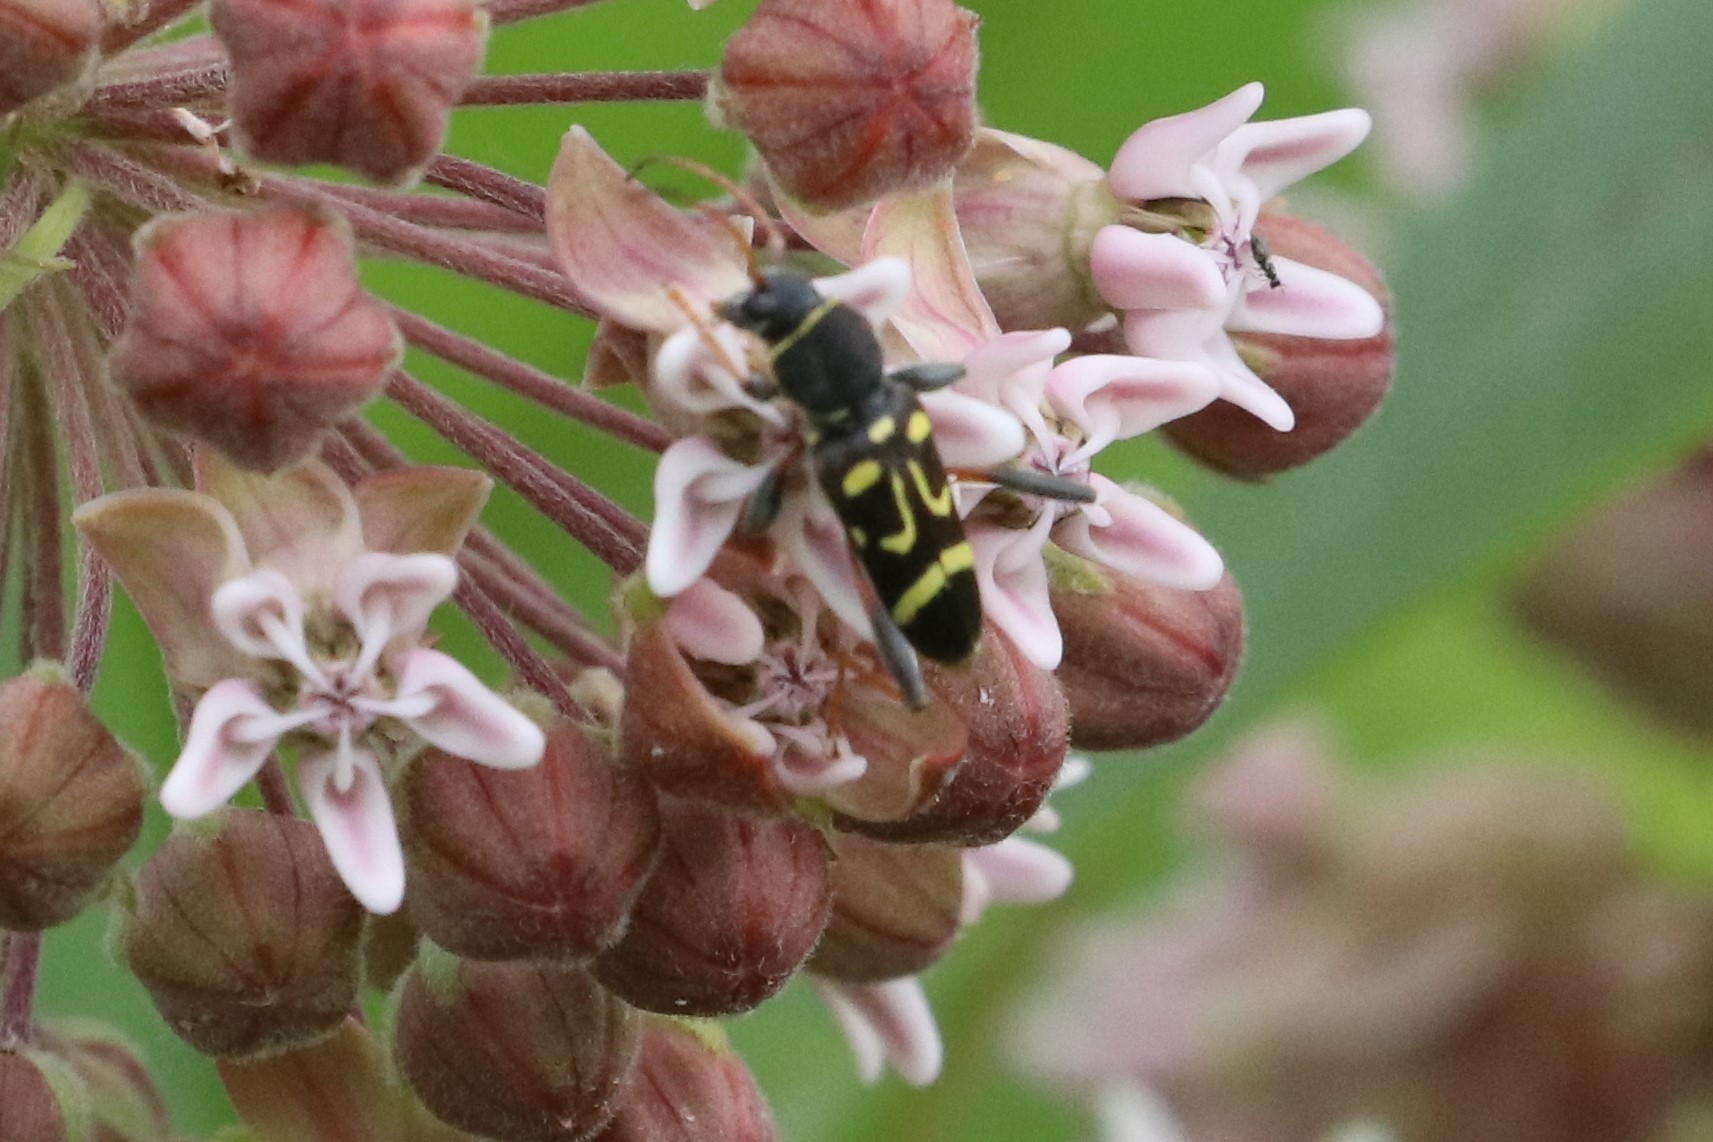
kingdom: Animalia
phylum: Arthropoda
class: Insecta
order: Coleoptera
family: Cerambycidae
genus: Clytus
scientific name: Clytus ruricola
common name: Round-necked longhorn beetle
